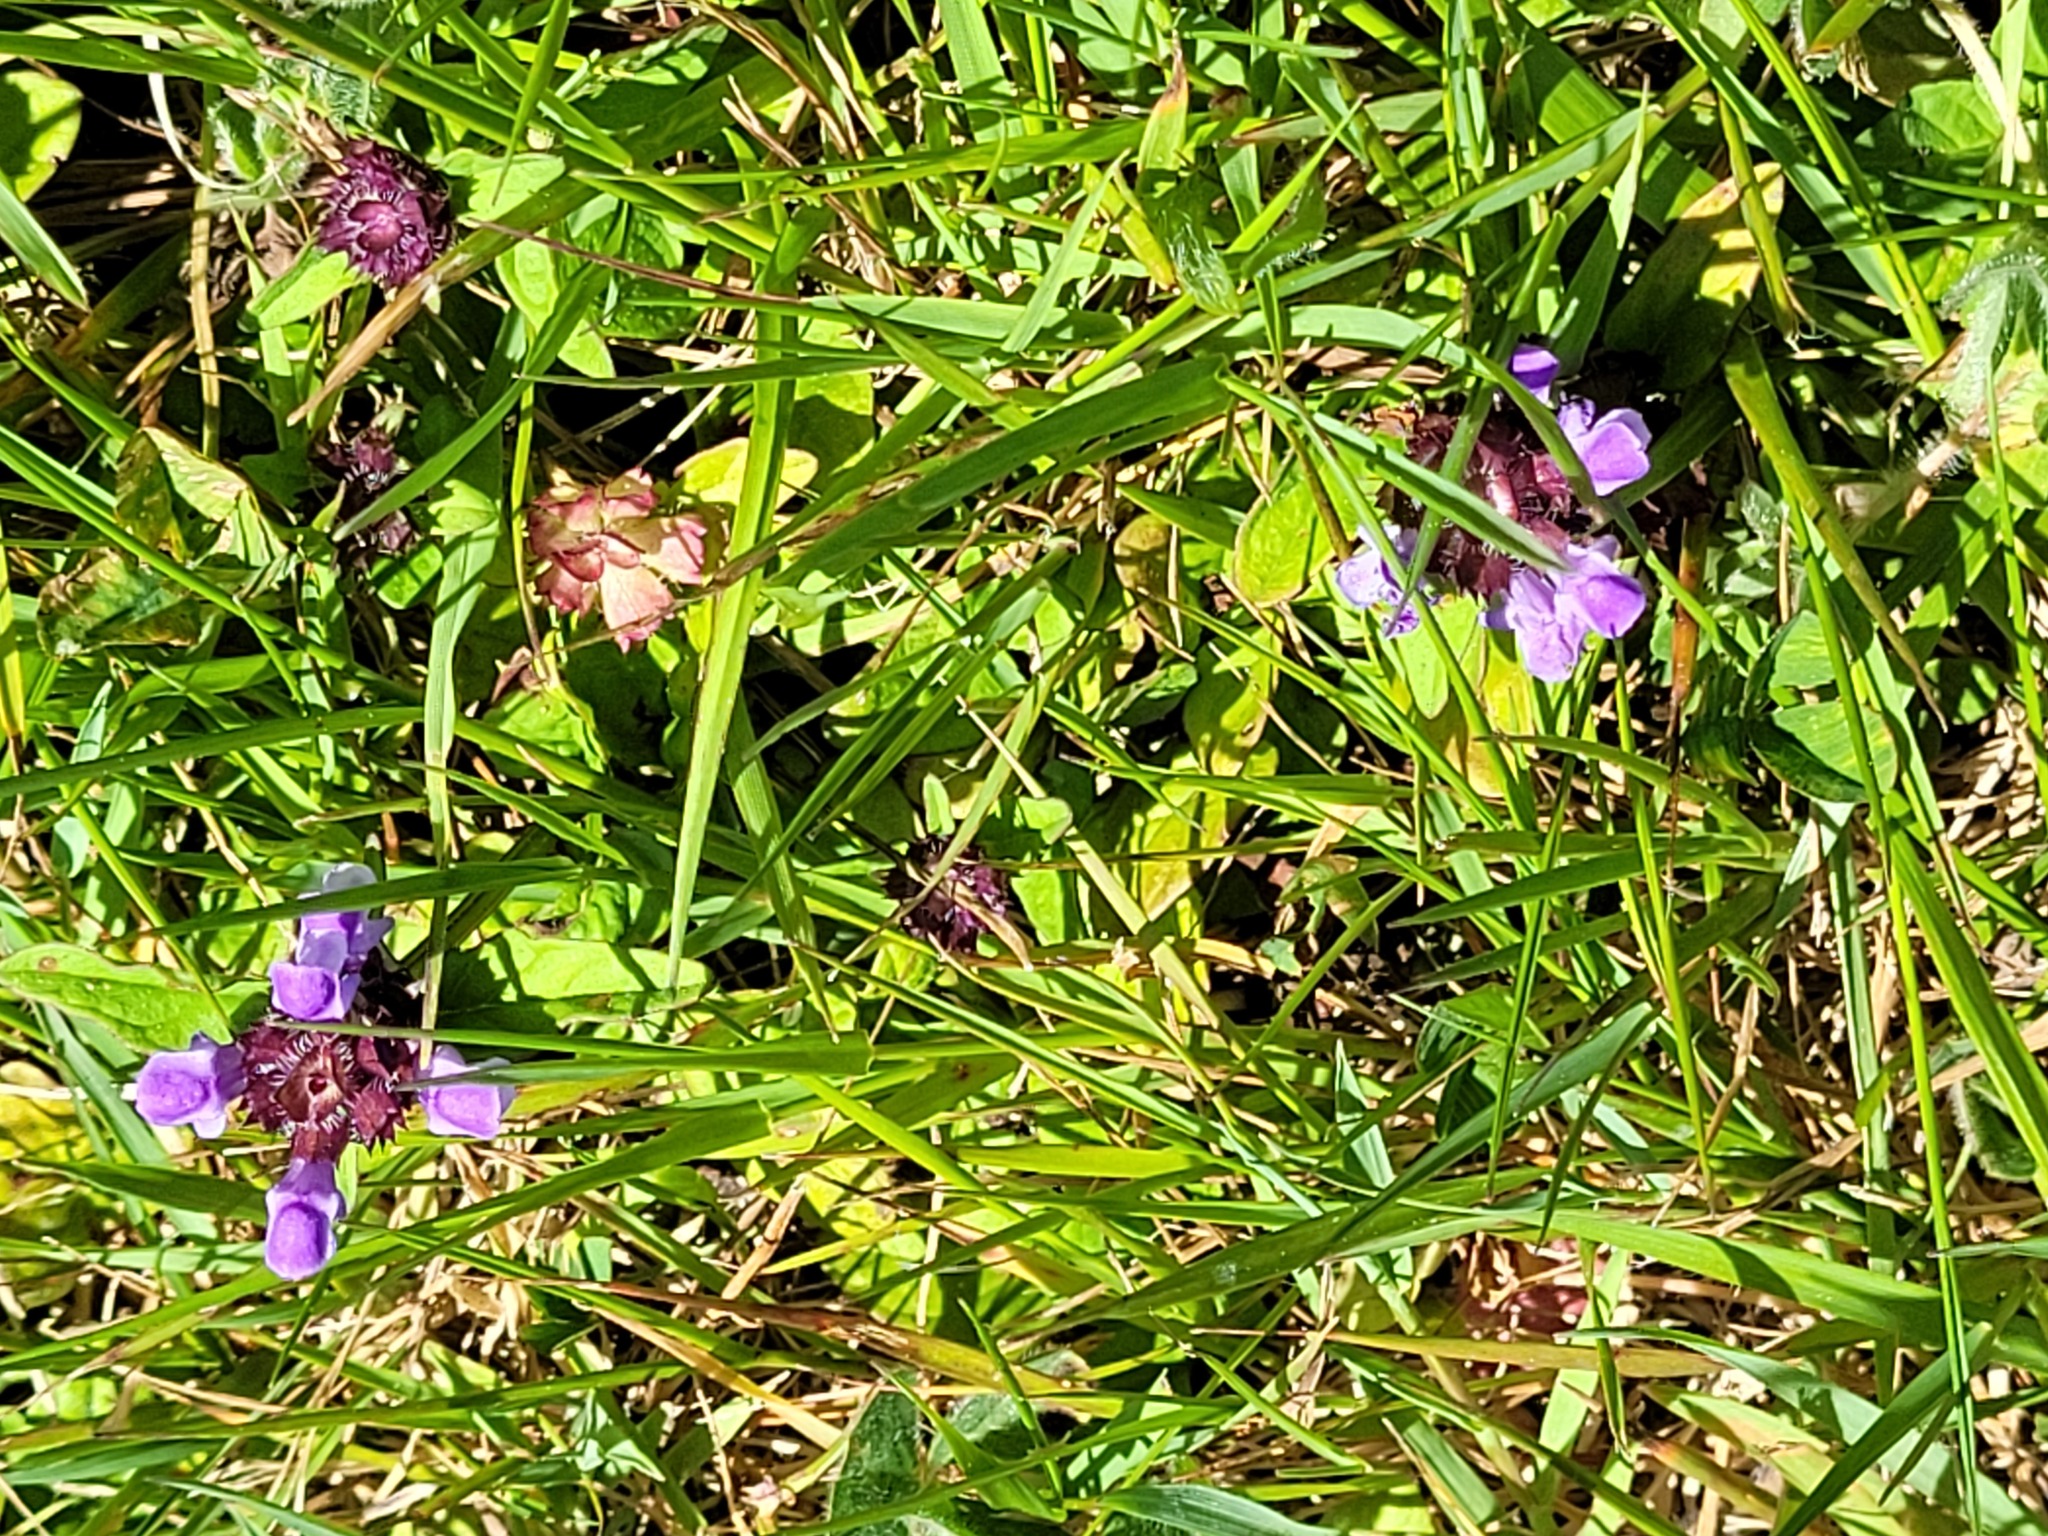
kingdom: Plantae
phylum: Tracheophyta
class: Magnoliopsida
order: Lamiales
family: Lamiaceae
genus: Prunella
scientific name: Prunella vulgaris
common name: Heal-all
